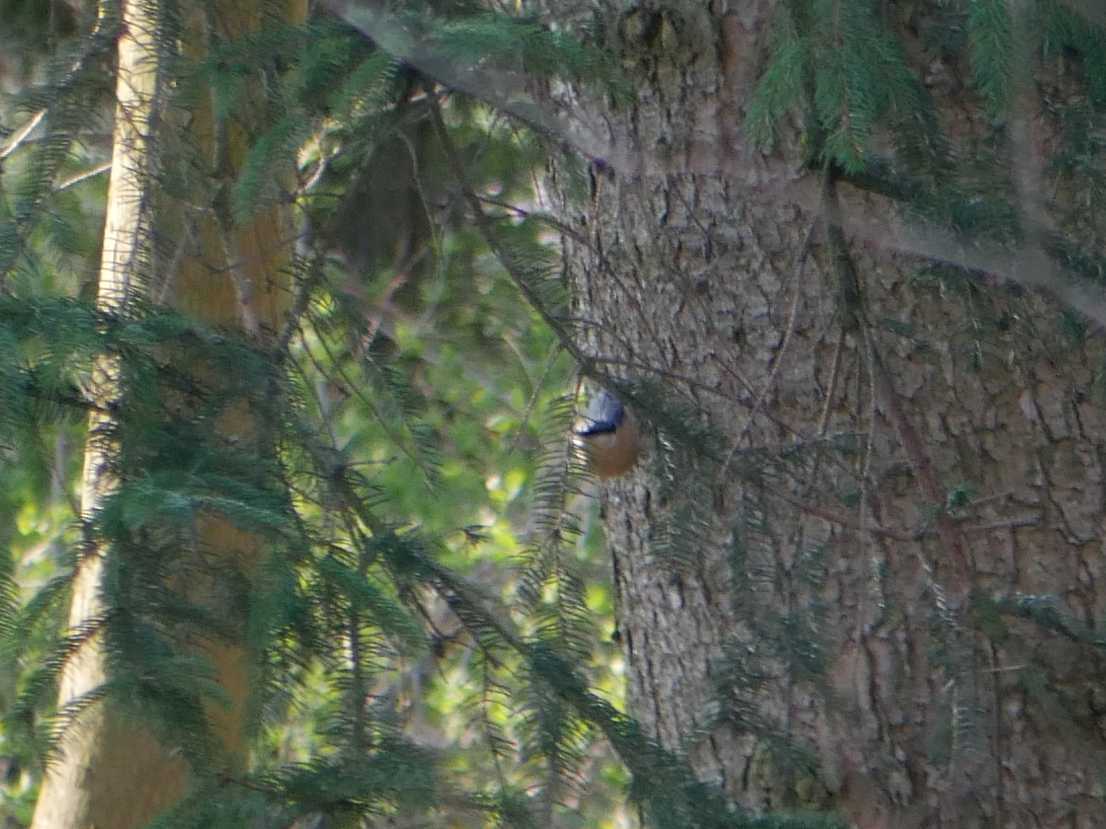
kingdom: Animalia
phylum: Chordata
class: Aves
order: Passeriformes
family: Sittidae
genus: Sitta
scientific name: Sitta europaea
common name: Eurasian nuthatch
